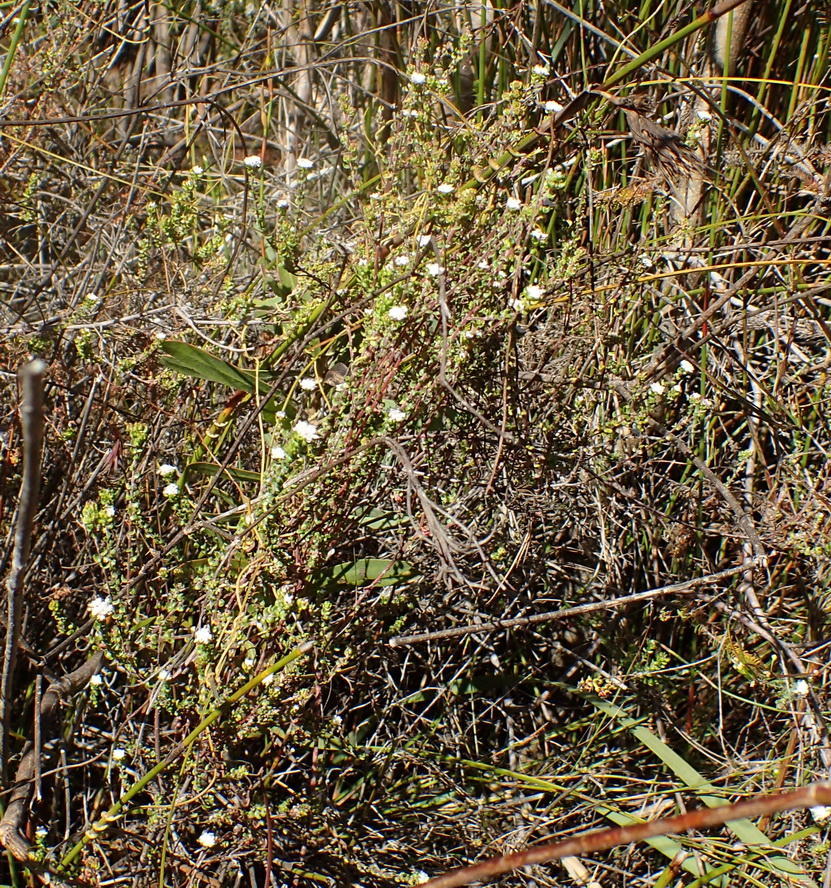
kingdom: Plantae
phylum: Tracheophyta
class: Magnoliopsida
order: Rosales
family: Rhamnaceae
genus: Phylica
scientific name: Phylica debilis
